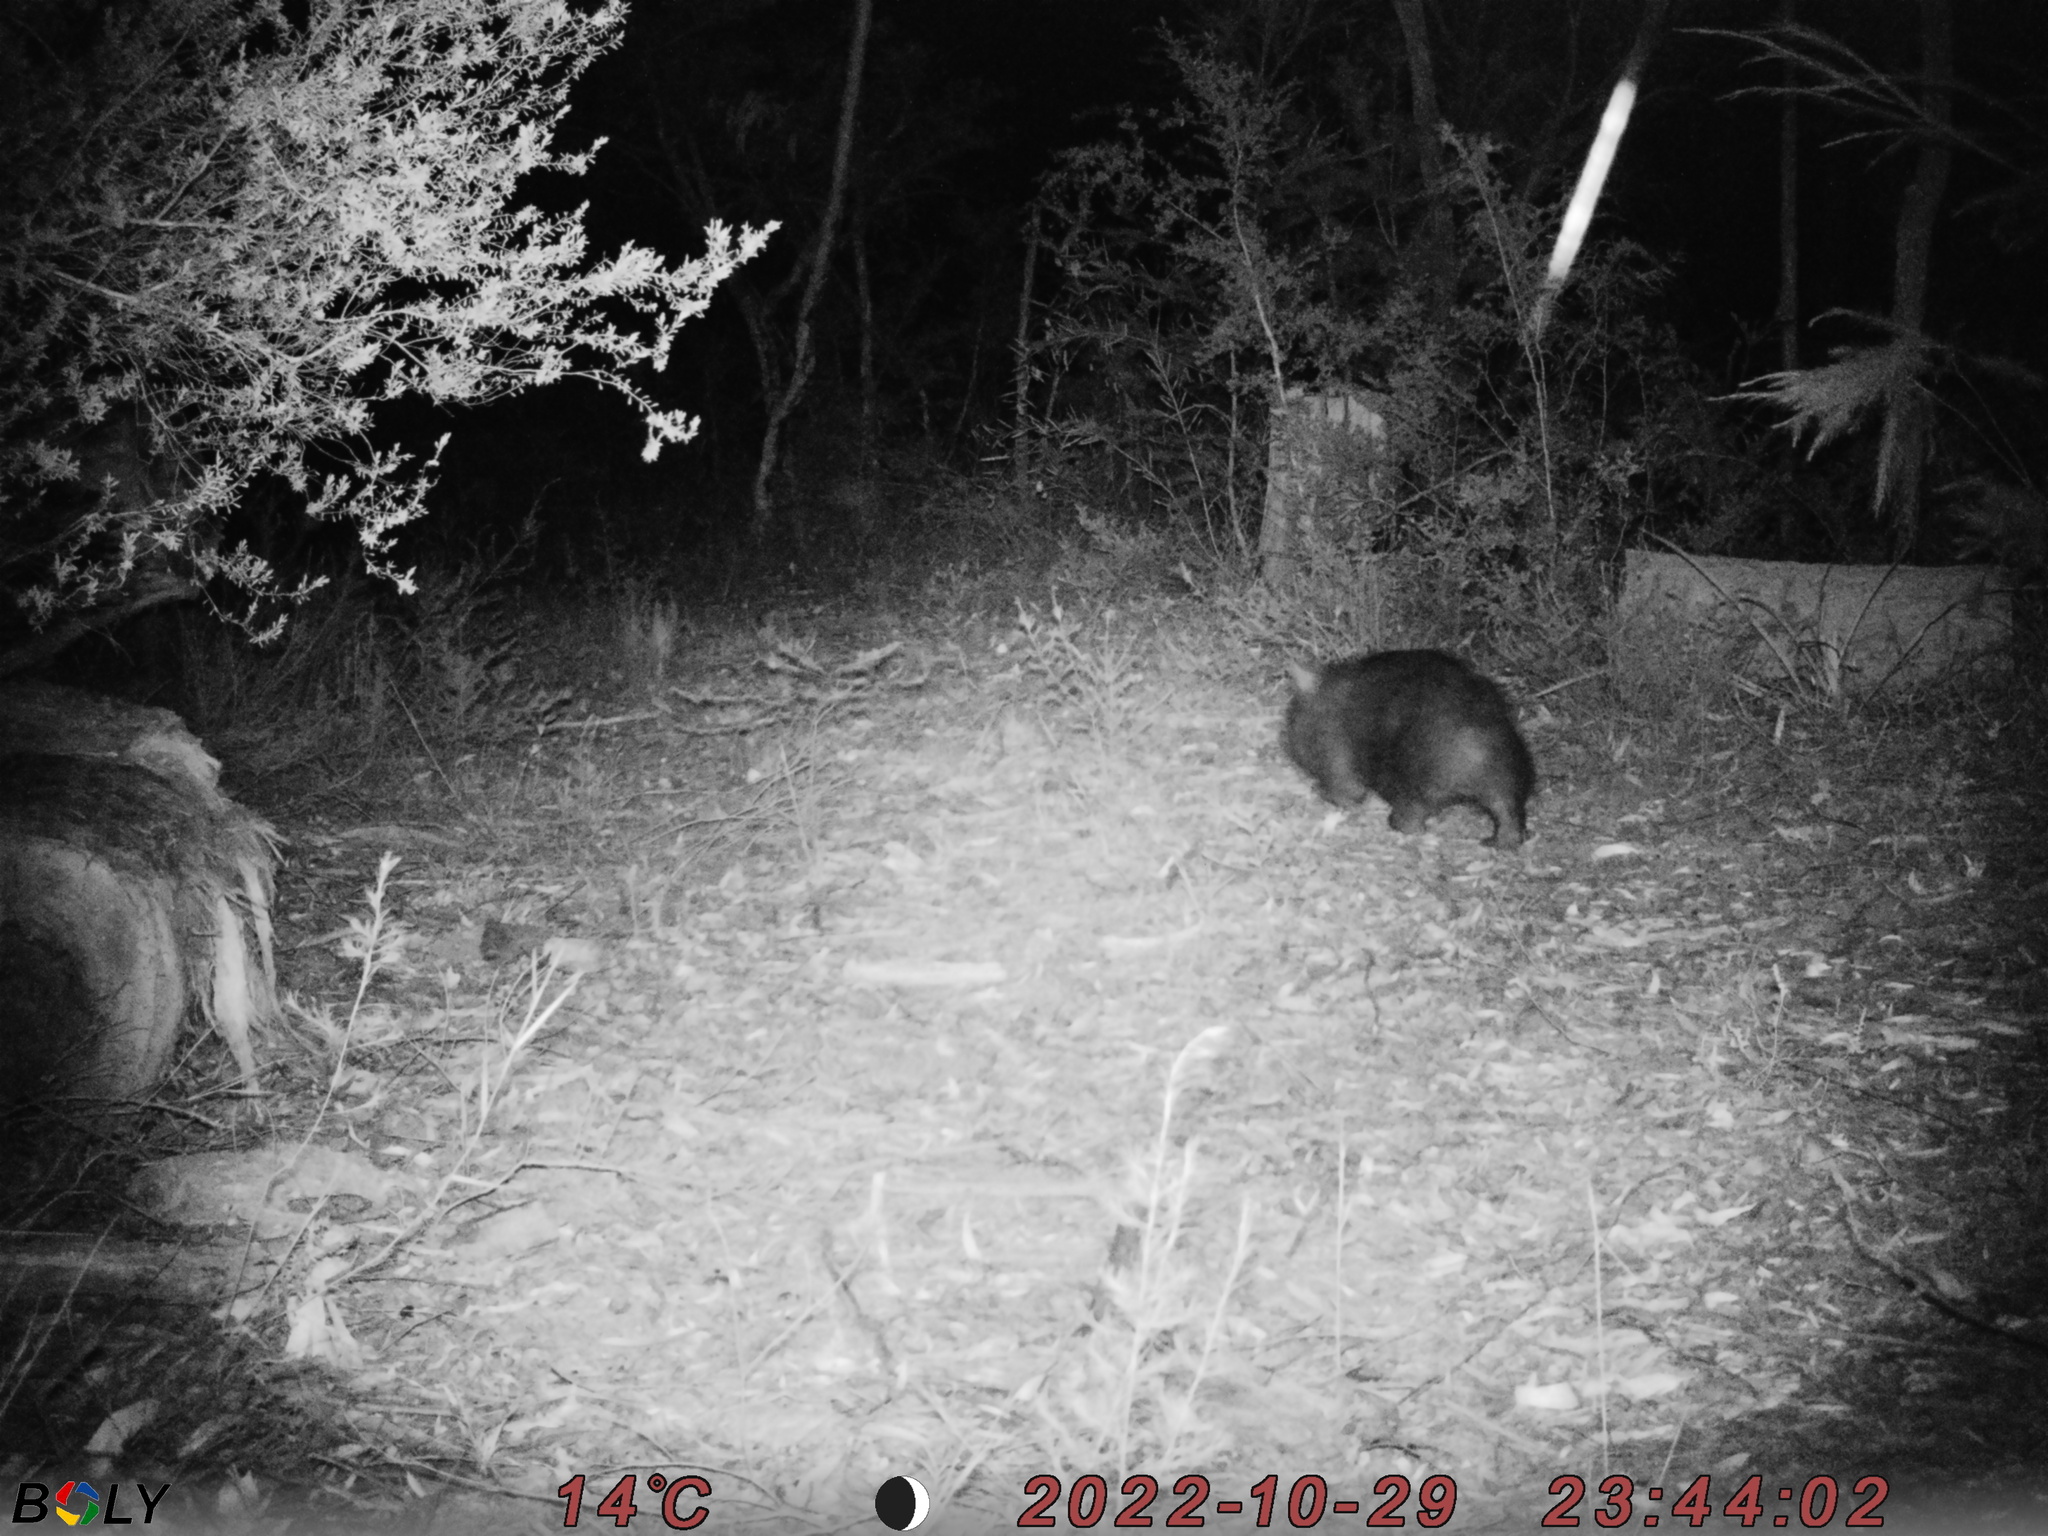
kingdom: Animalia
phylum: Chordata
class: Mammalia
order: Diprotodontia
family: Vombatidae
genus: Vombatus
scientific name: Vombatus ursinus
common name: Common wombat
